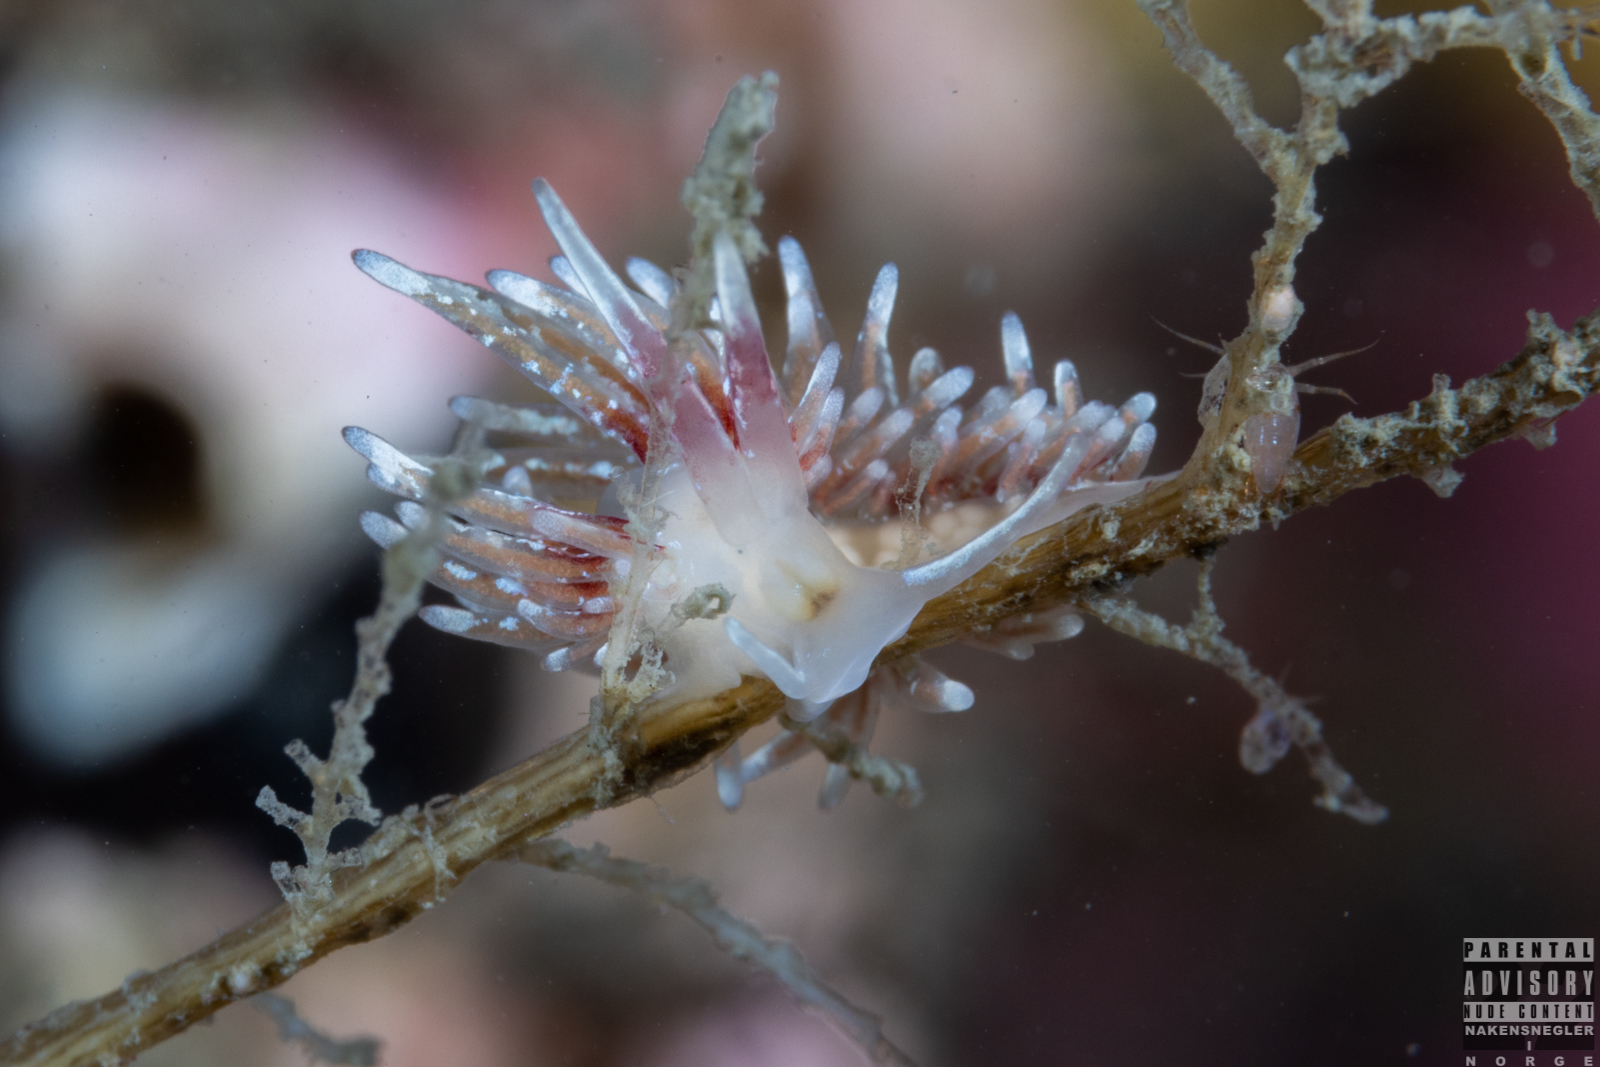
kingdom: Animalia
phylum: Mollusca
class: Gastropoda
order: Nudibranchia
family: Trinchesiidae
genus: Rubramoena
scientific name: Rubramoena rubescens
